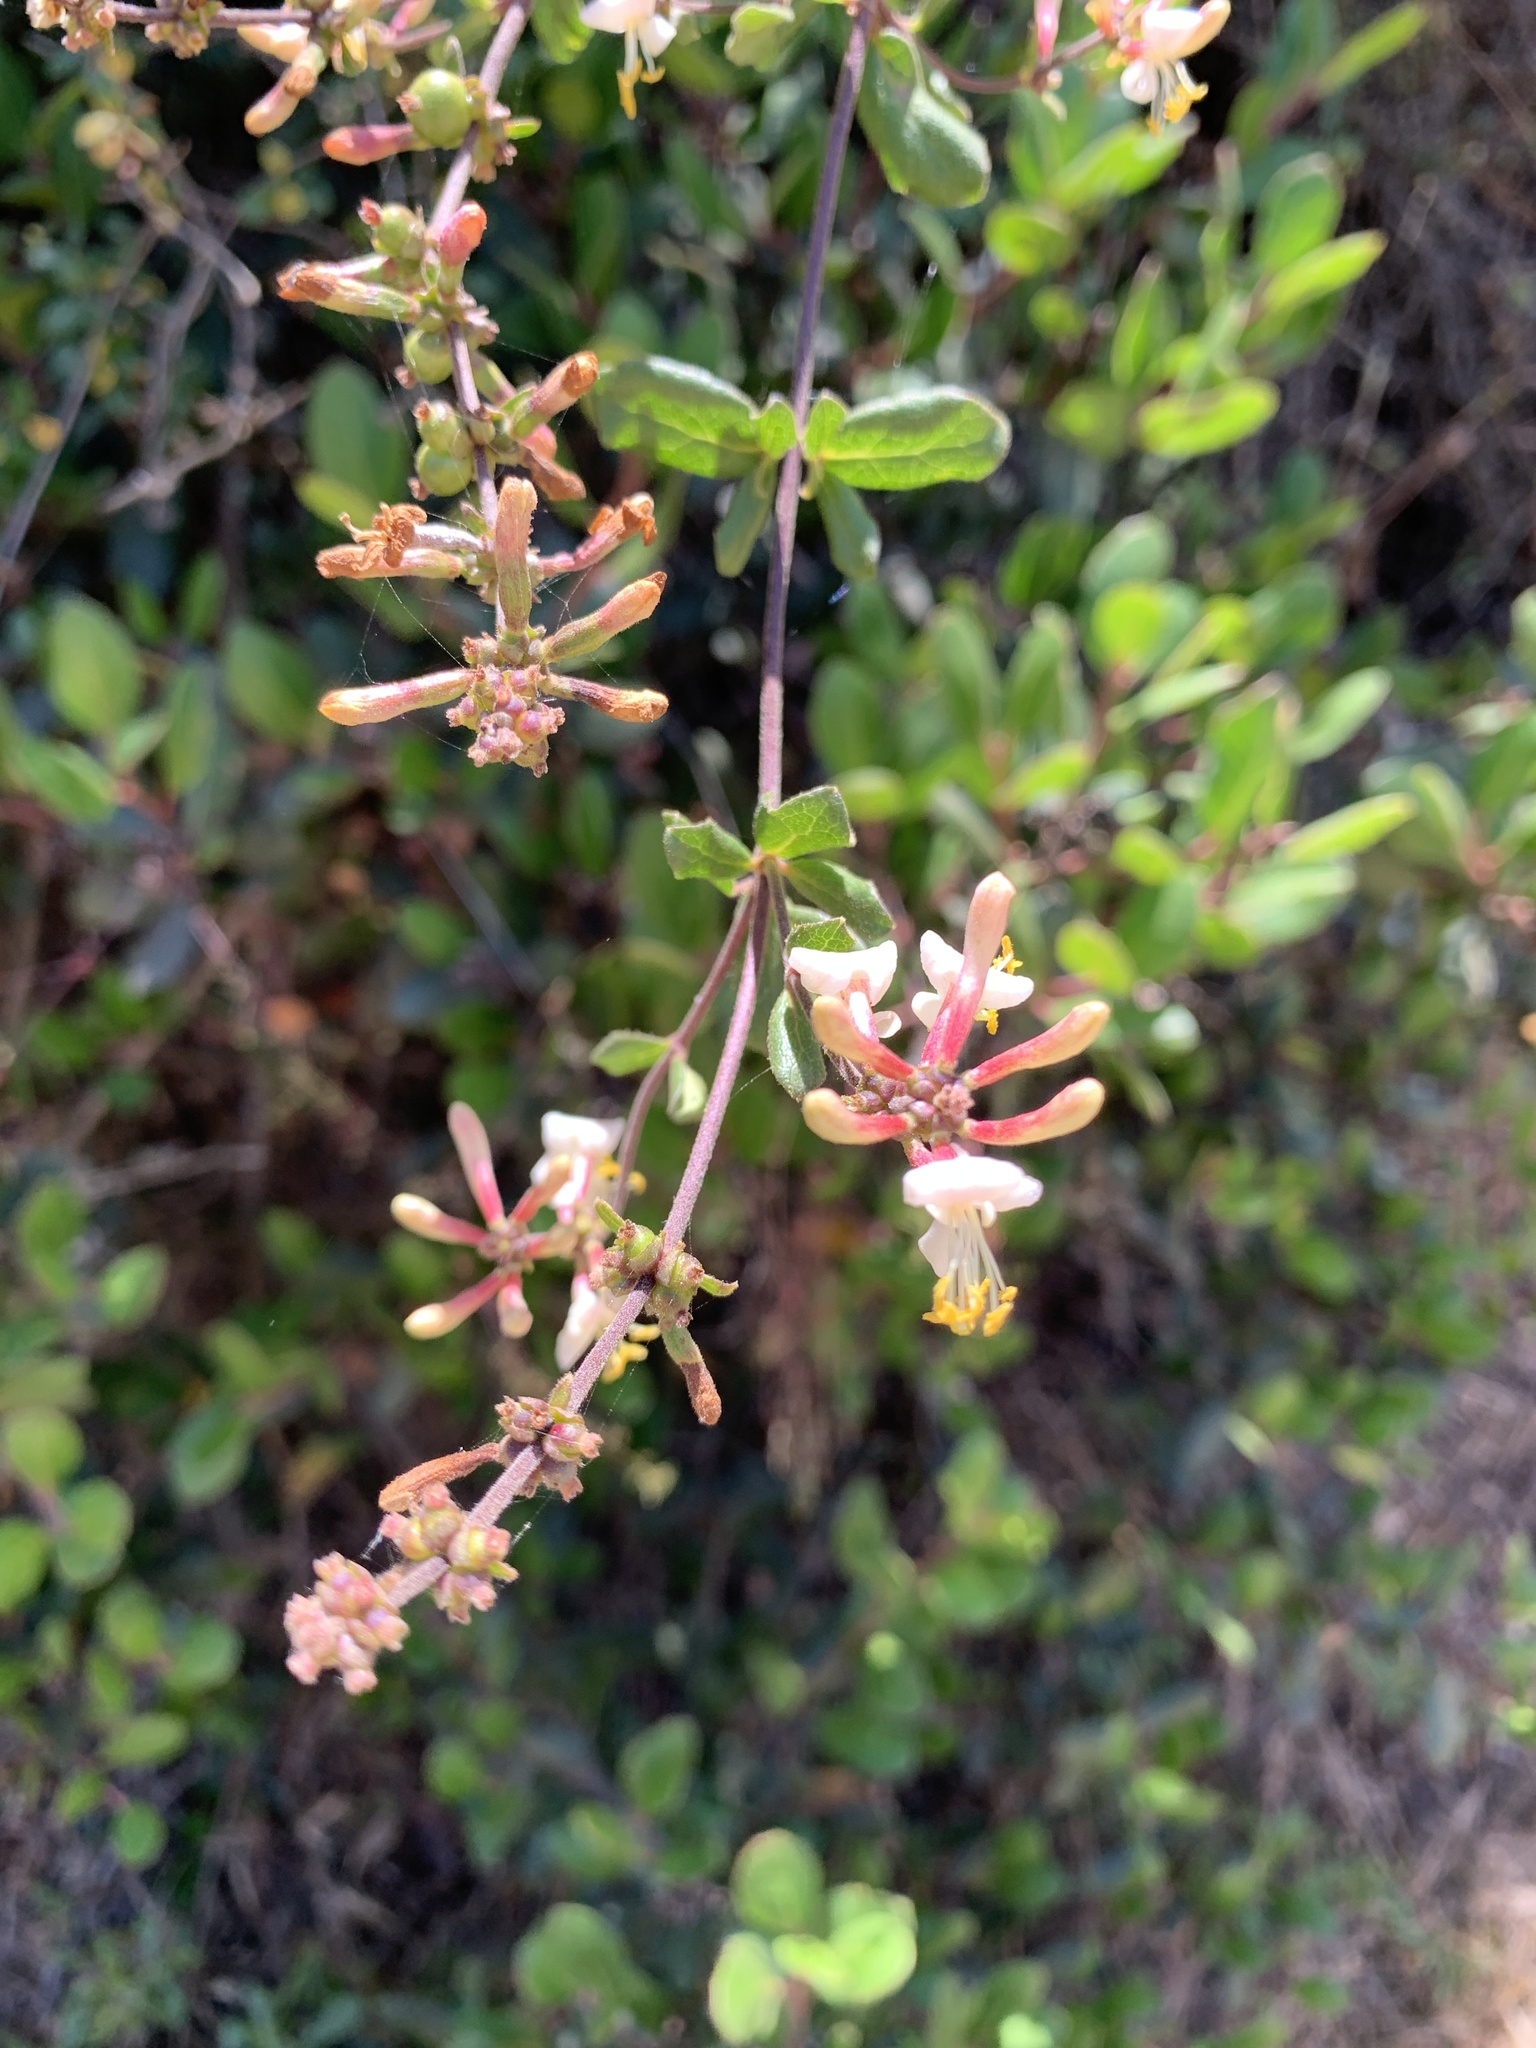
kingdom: Plantae
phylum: Tracheophyta
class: Magnoliopsida
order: Dipsacales
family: Caprifoliaceae
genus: Lonicera
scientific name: Lonicera subspicata
